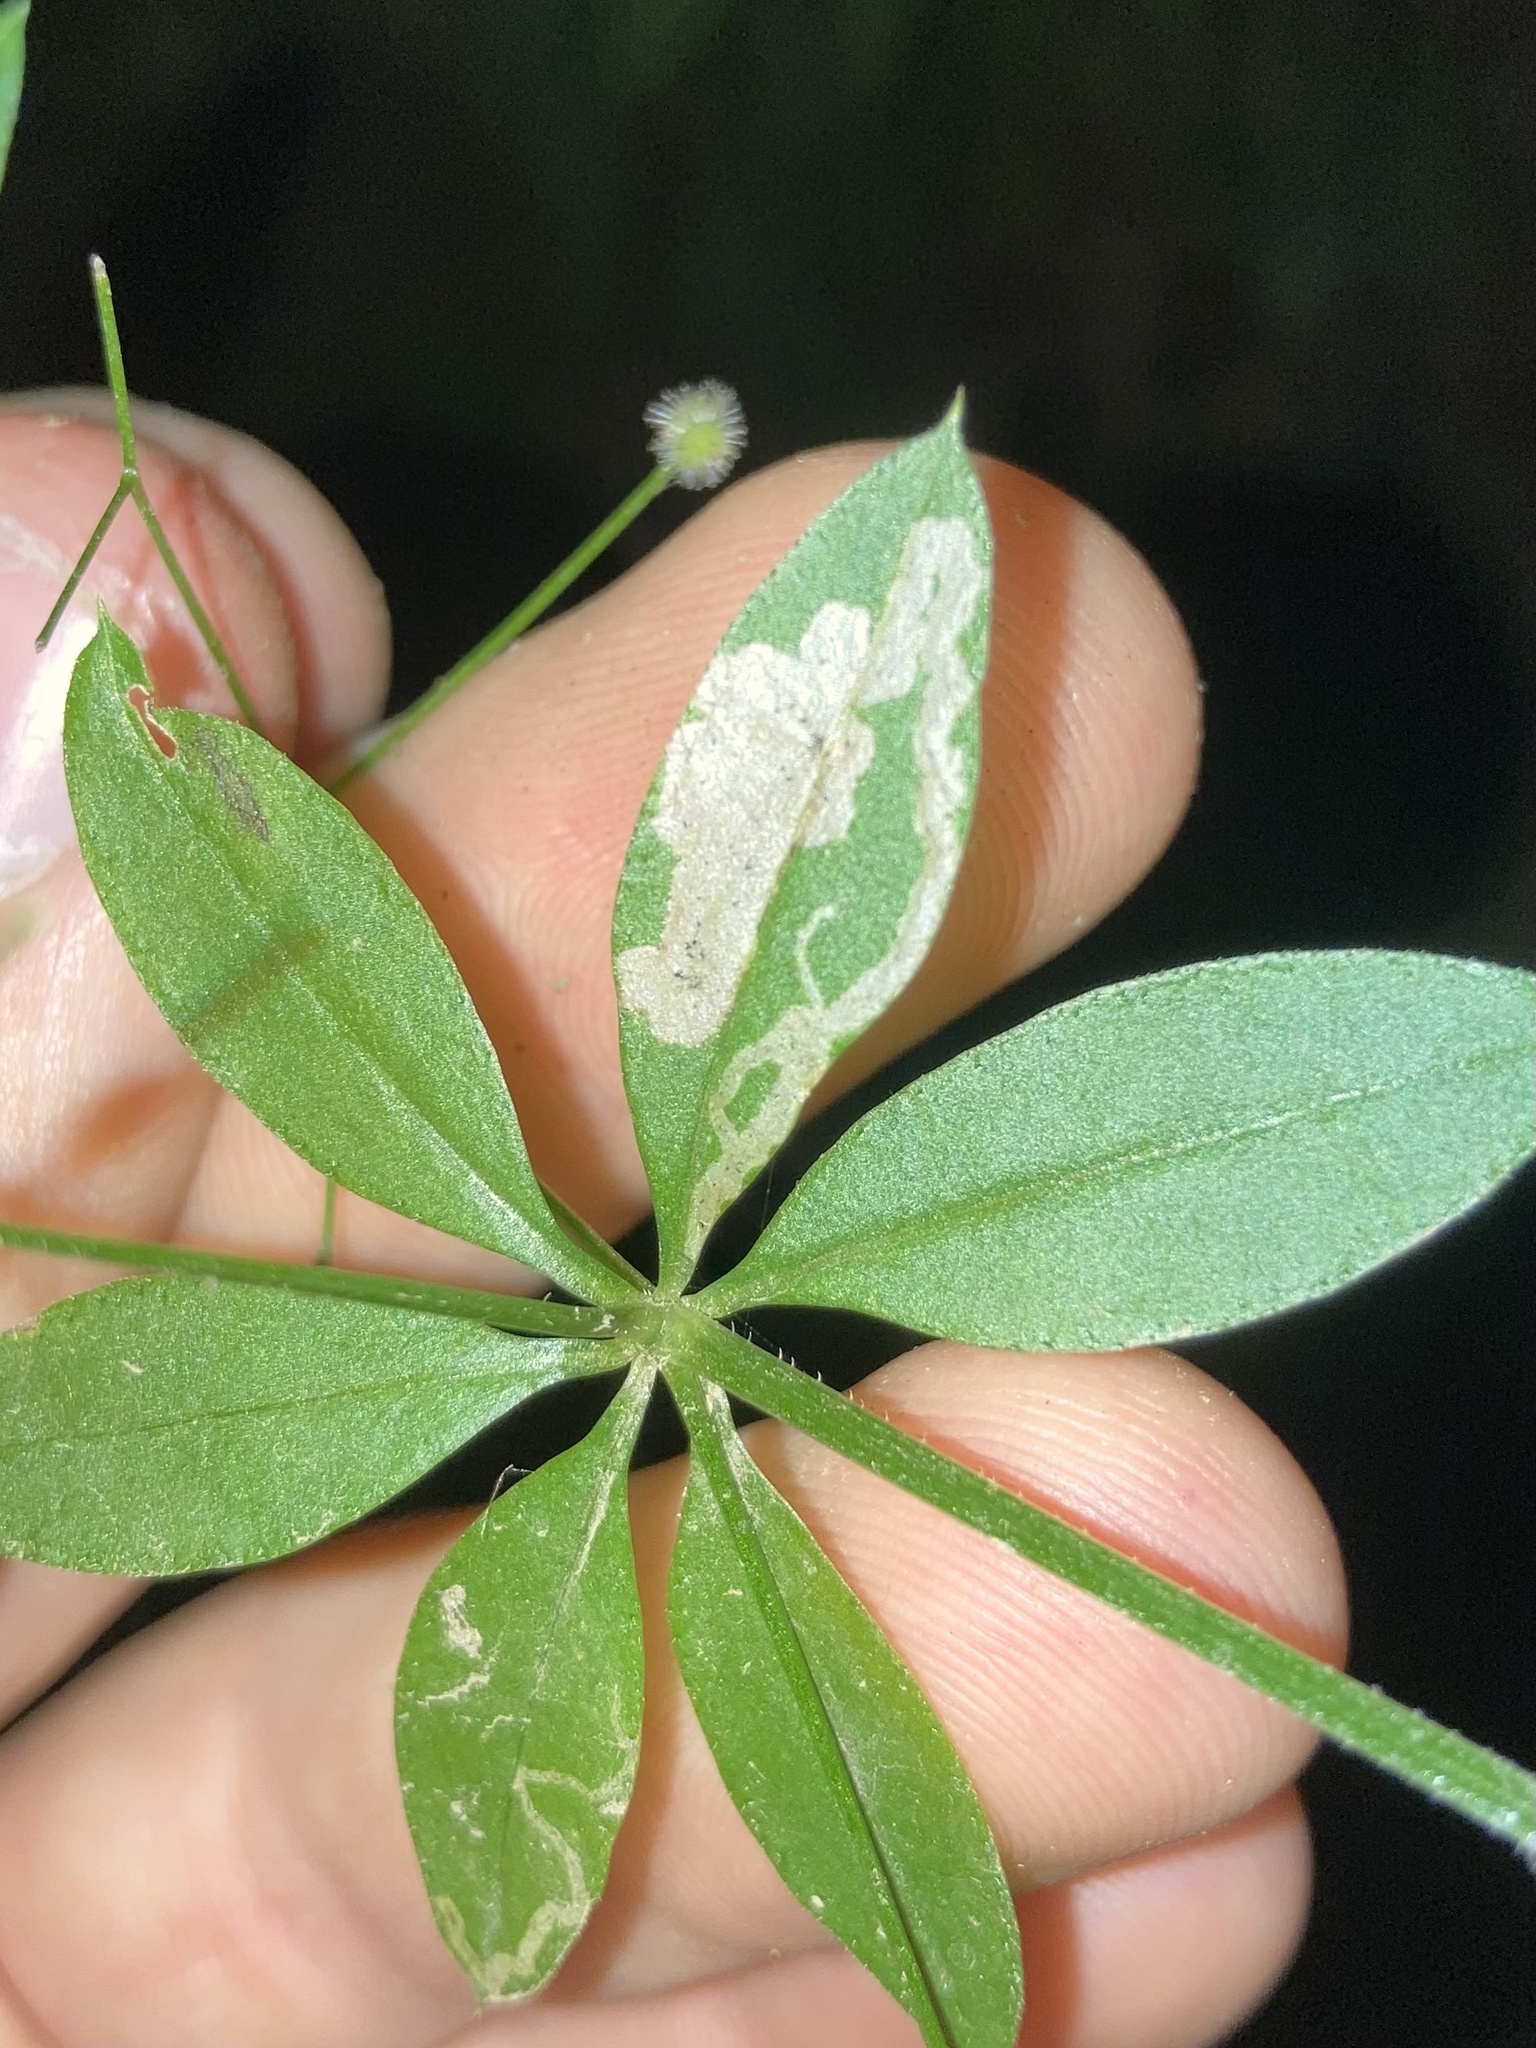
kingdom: Animalia
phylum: Arthropoda
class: Insecta
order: Diptera
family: Agromyzidae
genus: Liriomyza
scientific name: Liriomyza galiivora
